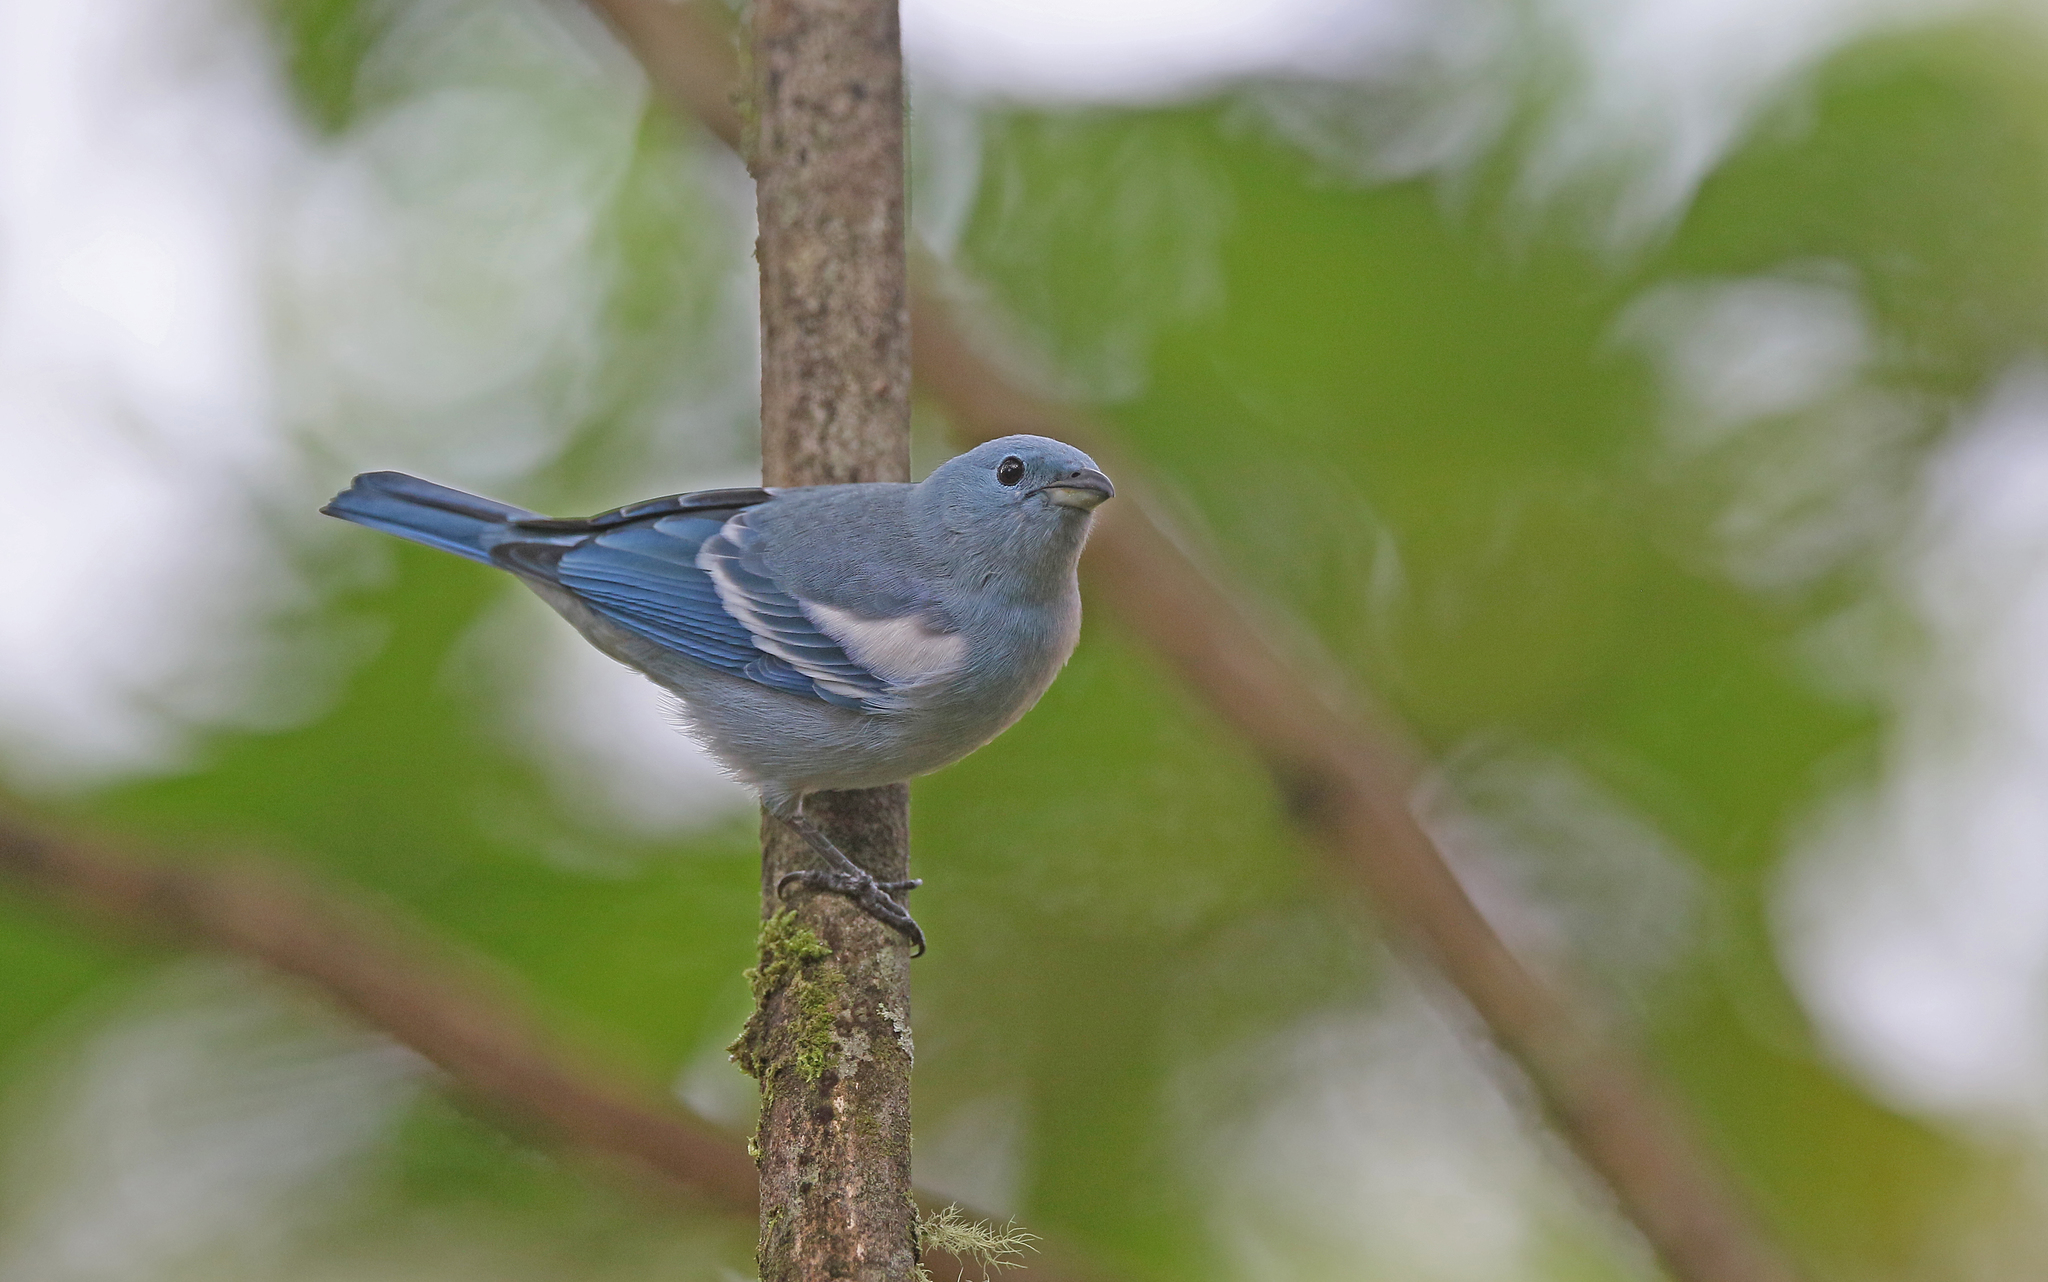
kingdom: Animalia
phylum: Chordata
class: Aves
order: Passeriformes
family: Thraupidae
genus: Thraupis
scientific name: Thraupis episcopus
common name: Blue-grey tanager
